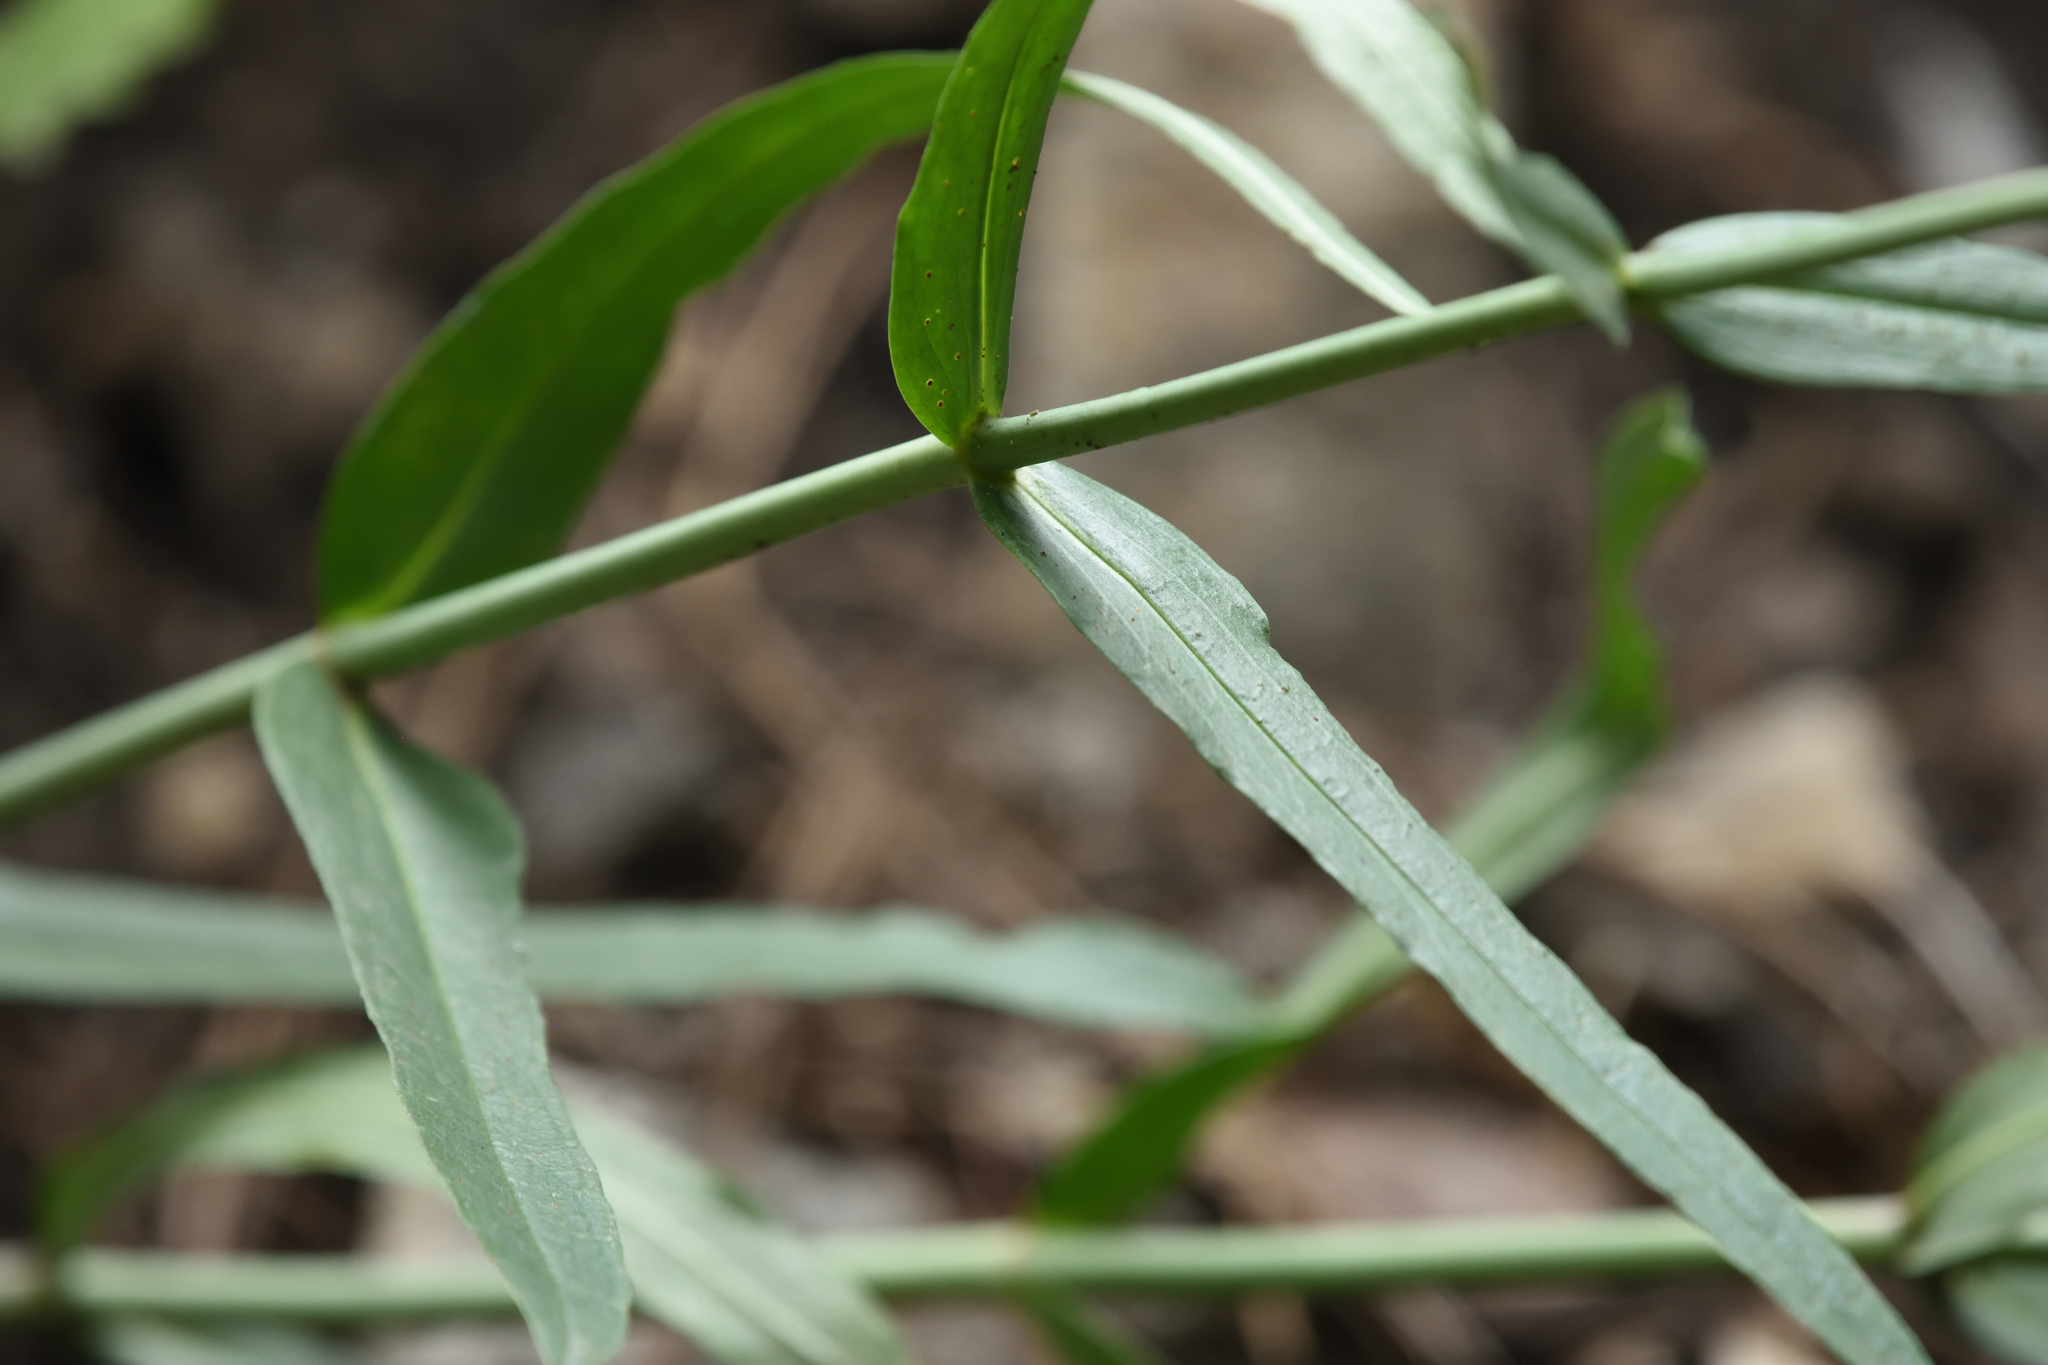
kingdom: Plantae
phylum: Tracheophyta
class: Magnoliopsida
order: Lamiales
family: Plantaginaceae
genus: Penstemon
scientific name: Penstemon barbatus
